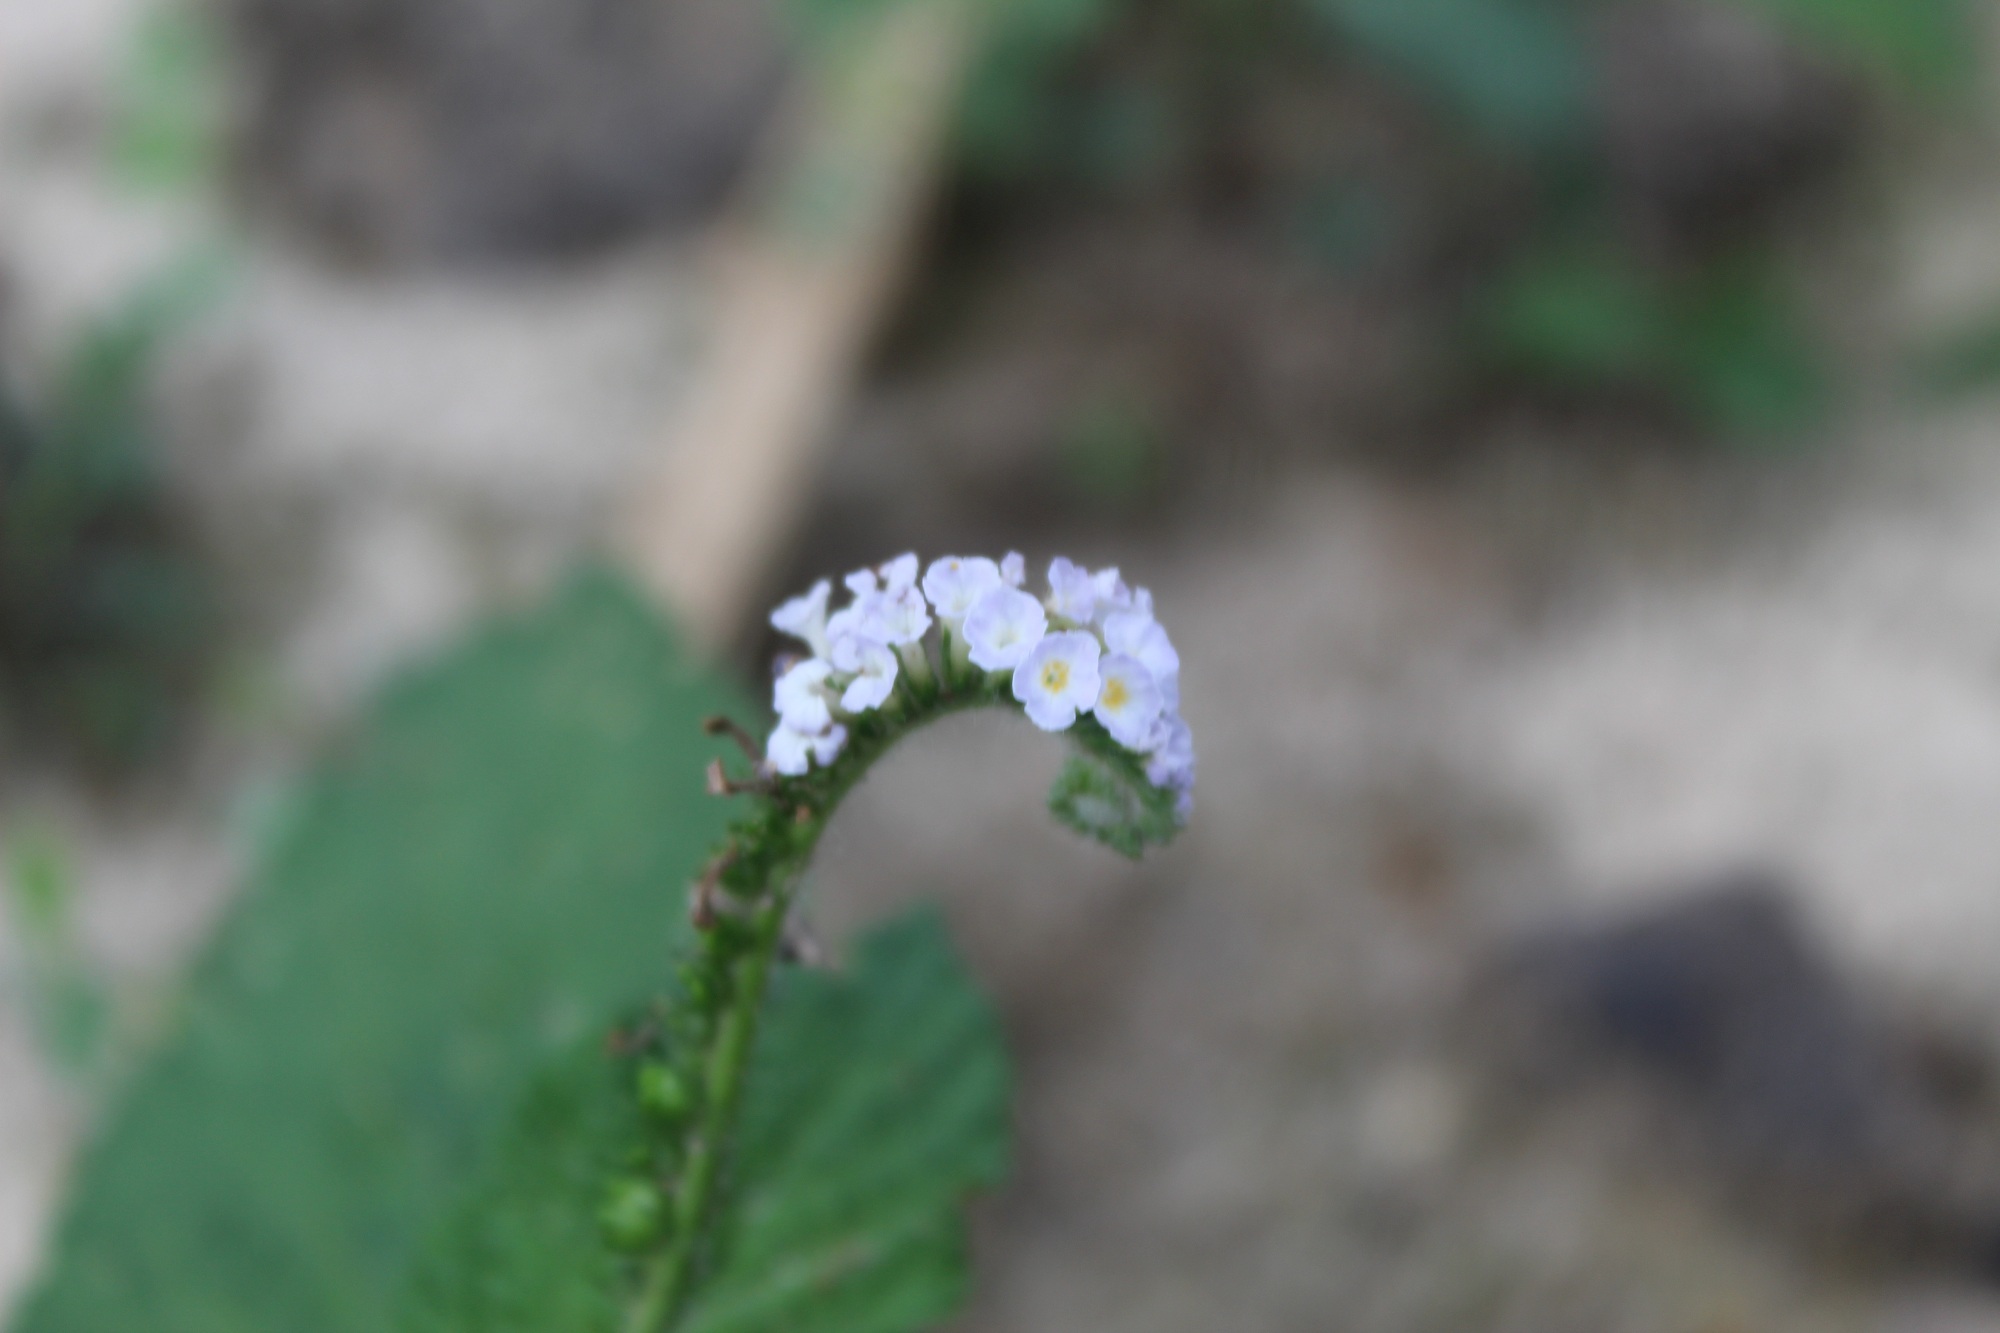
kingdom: Plantae
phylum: Tracheophyta
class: Magnoliopsida
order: Boraginales
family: Heliotropiaceae
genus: Heliotropium
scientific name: Heliotropium indicum
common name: Indian heliotrope
